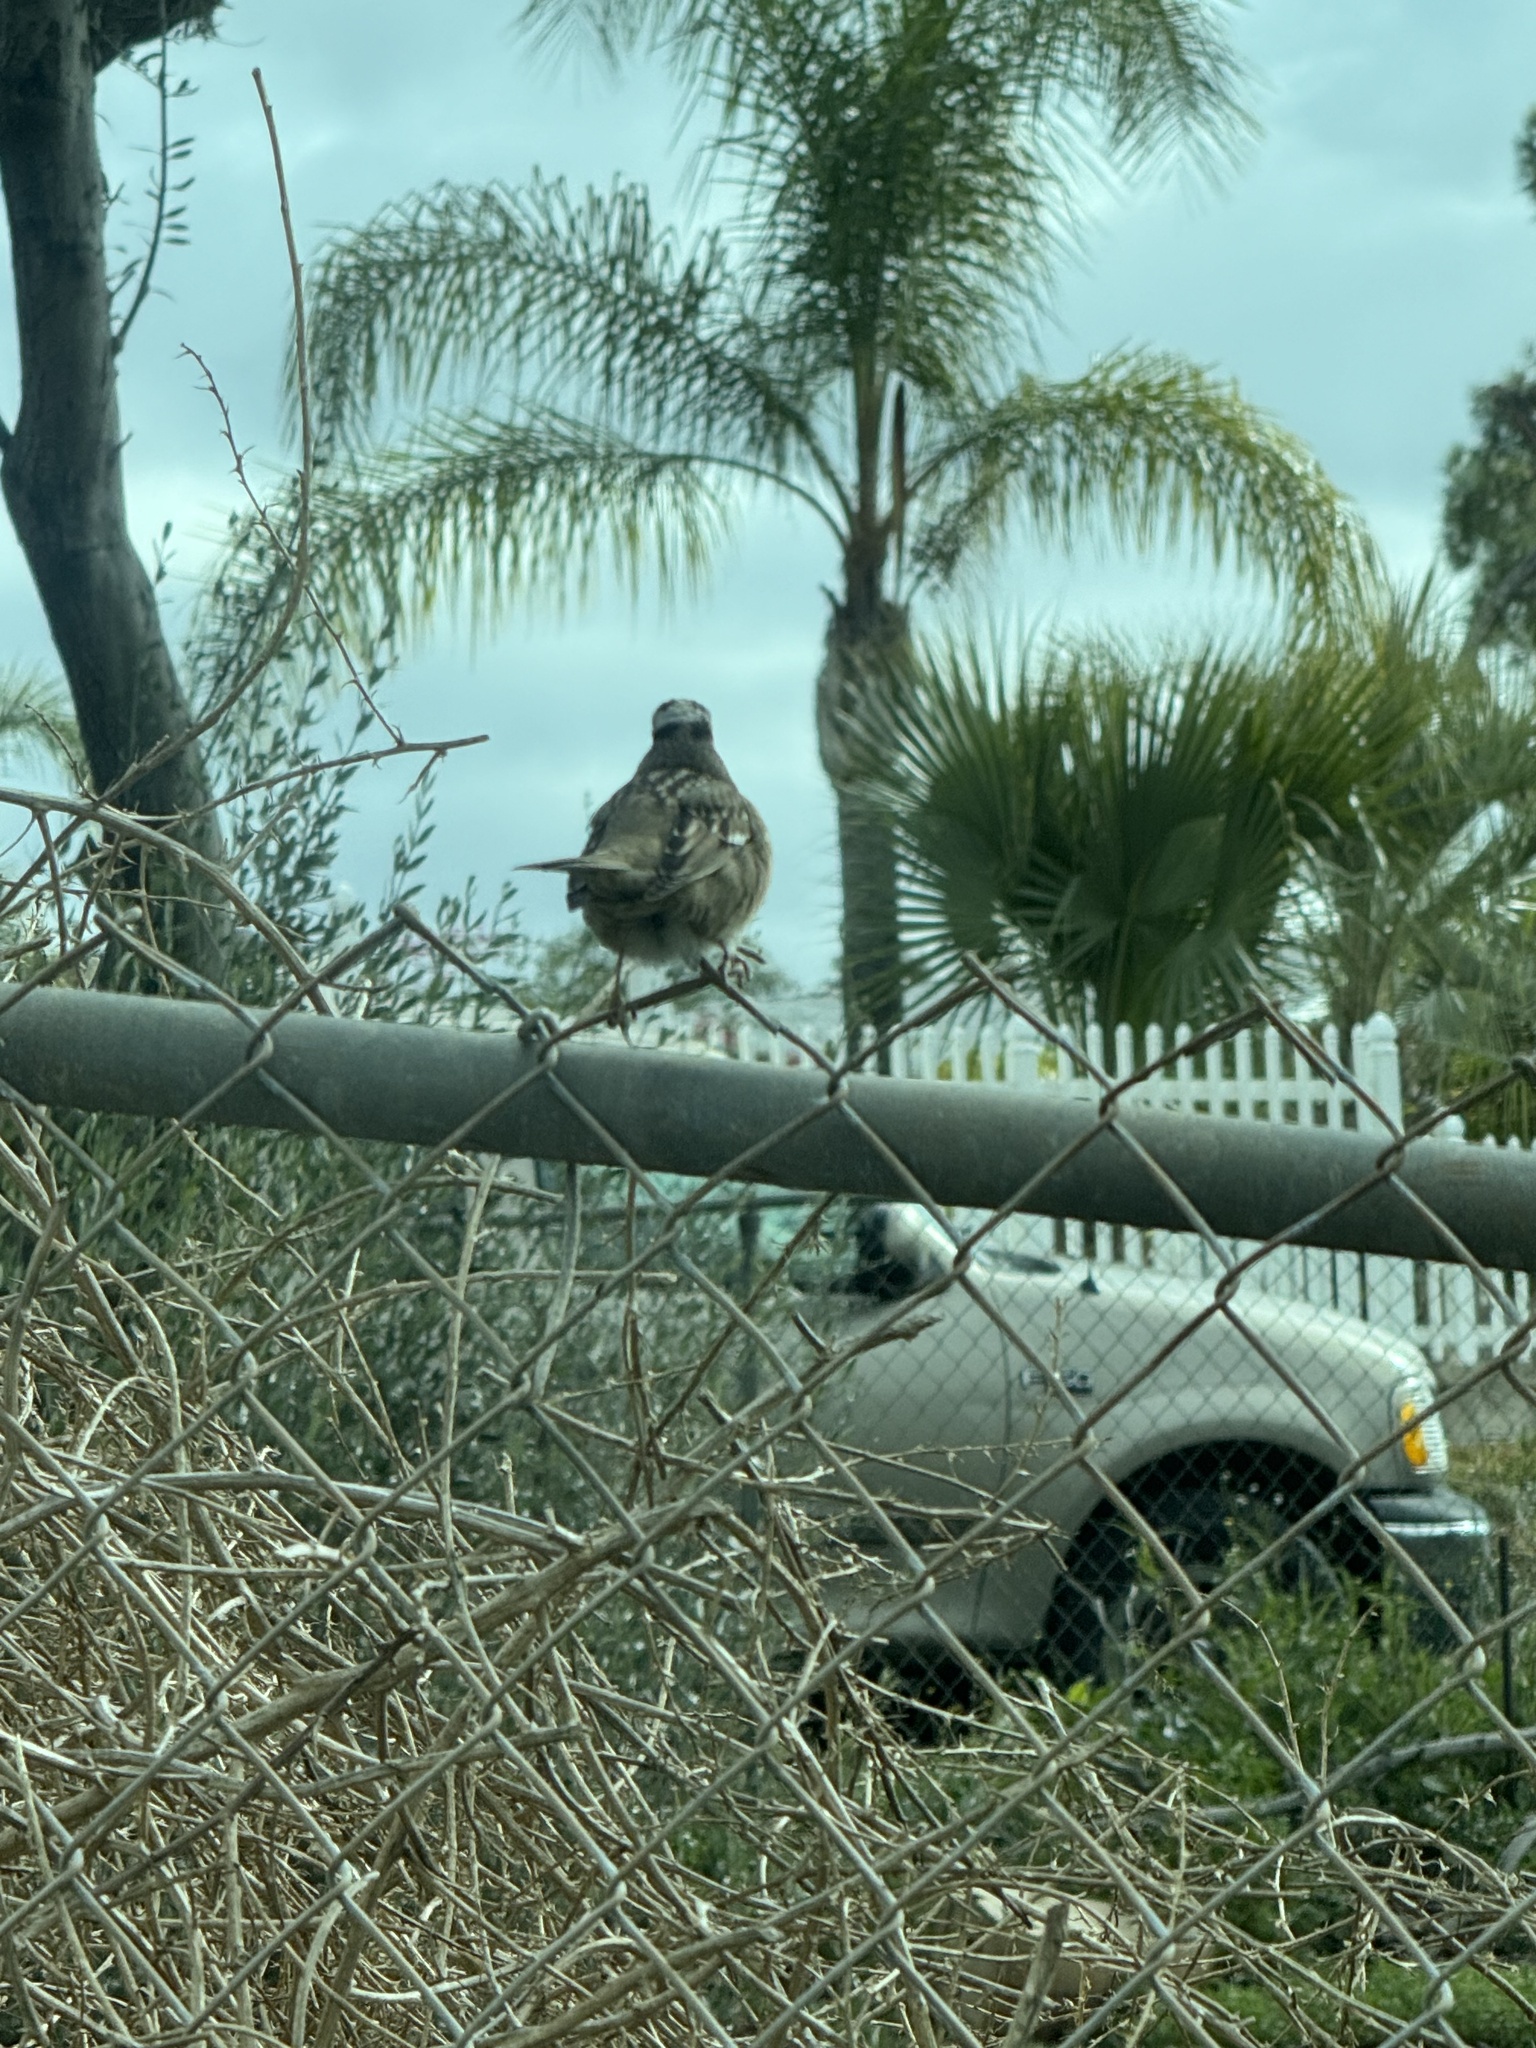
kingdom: Animalia
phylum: Chordata
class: Aves
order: Passeriformes
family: Passerellidae
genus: Zonotrichia
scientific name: Zonotrichia leucophrys
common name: White-crowned sparrow
